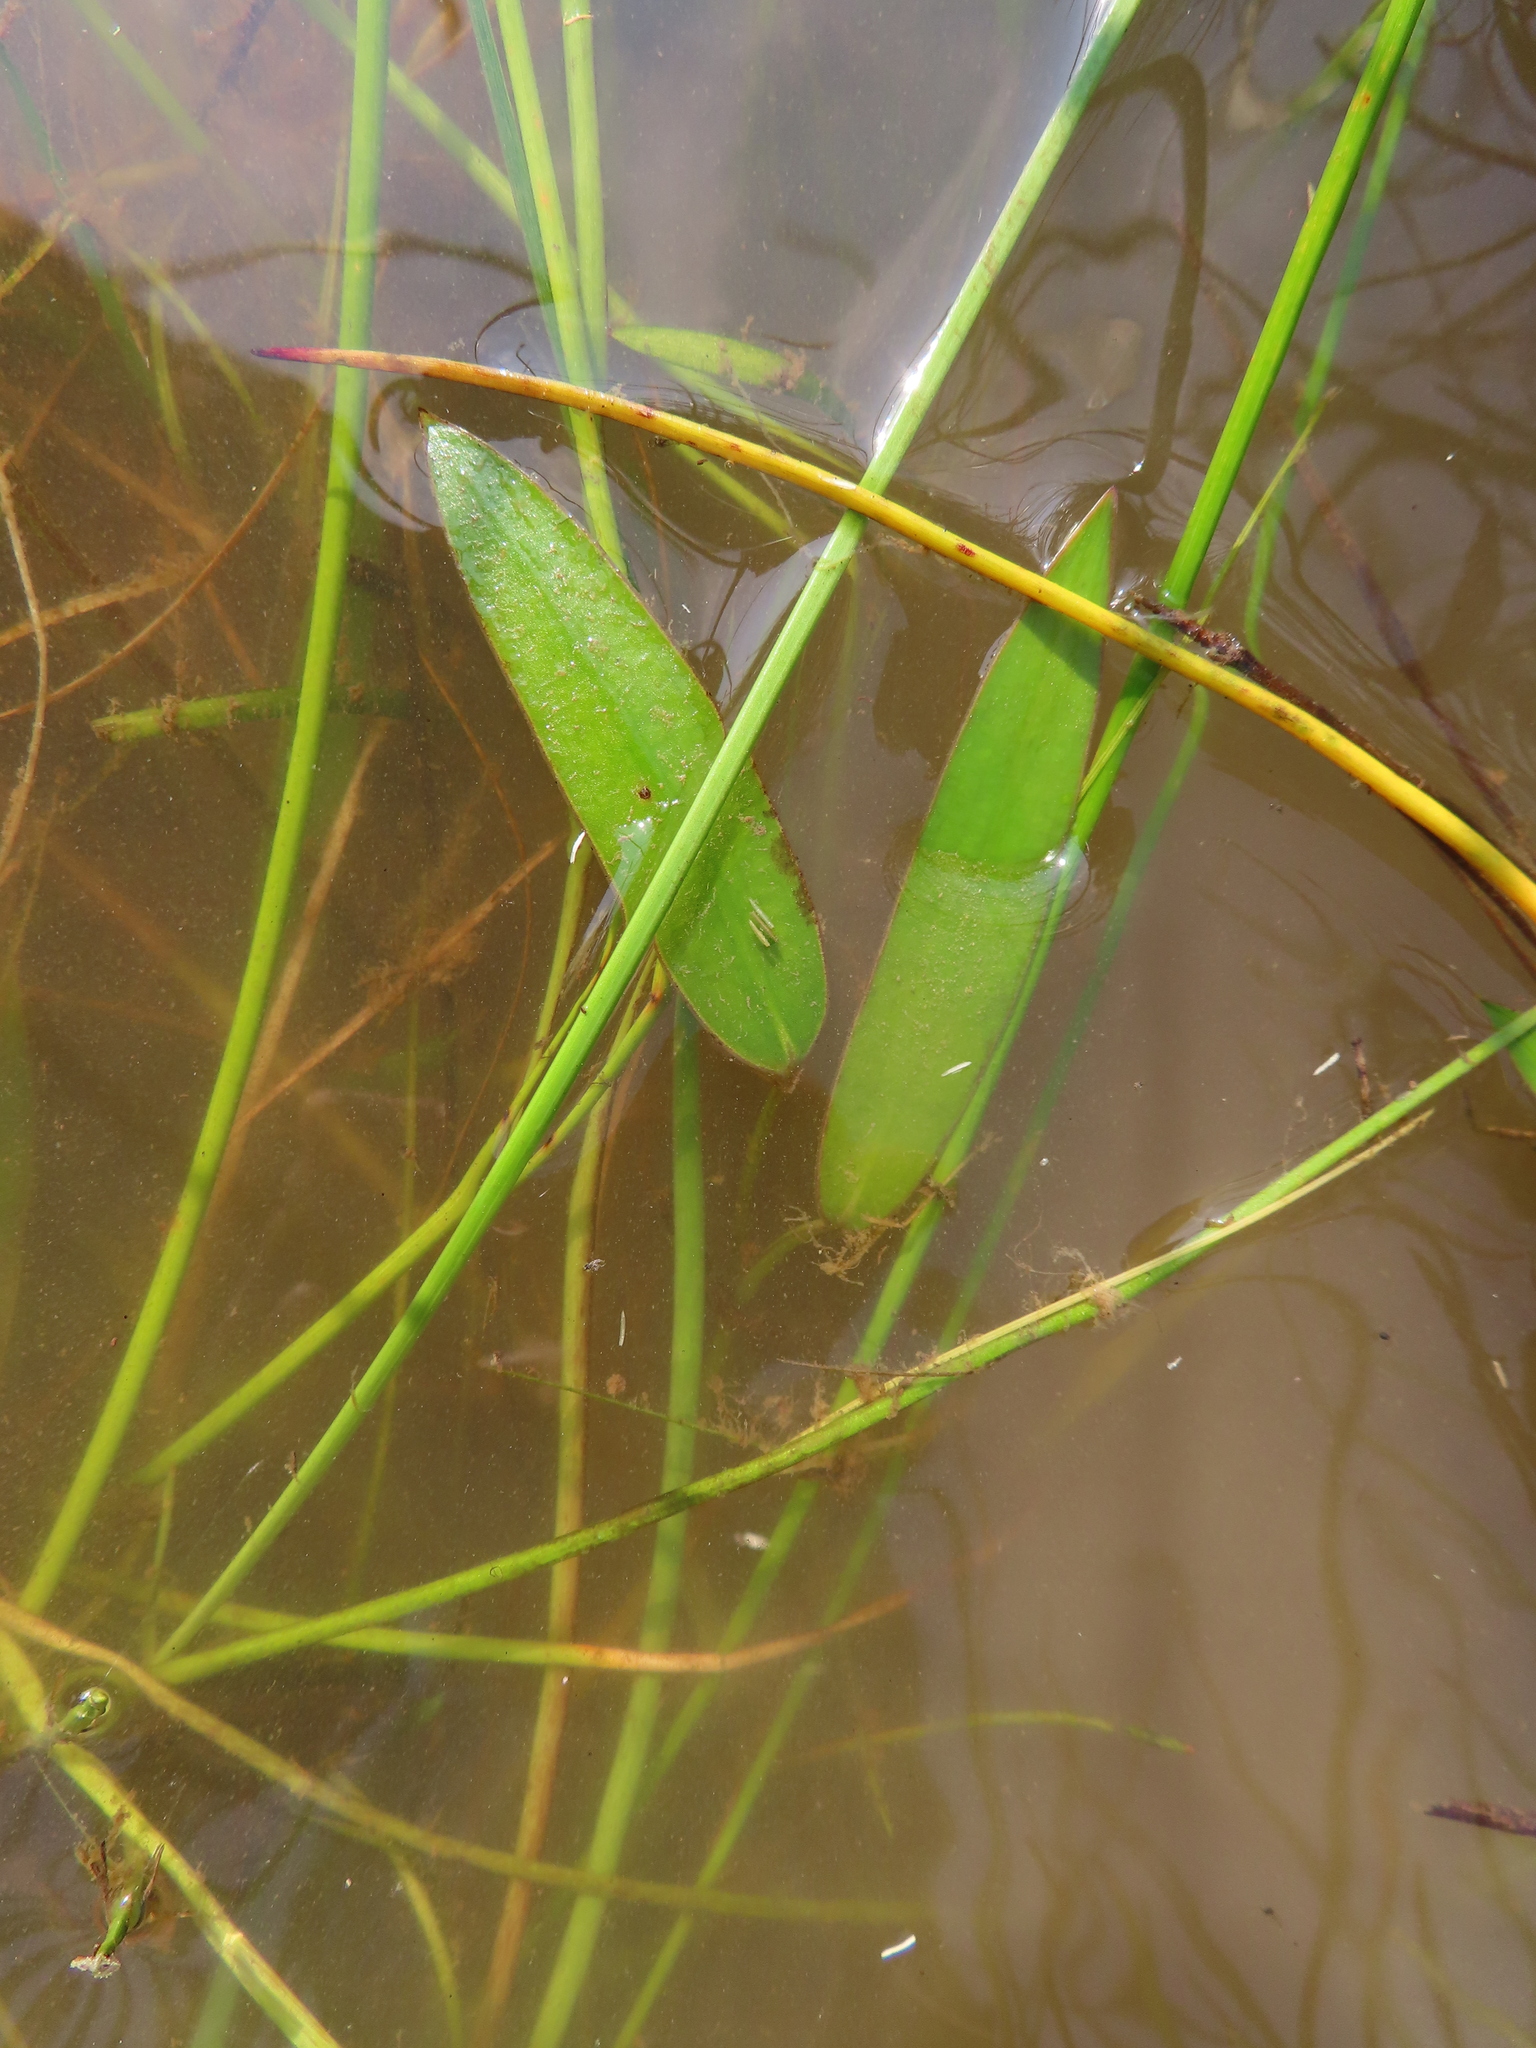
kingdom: Plantae
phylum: Tracheophyta
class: Liliopsida
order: Alismatales
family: Aponogetonaceae
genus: Aponogeton
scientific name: Aponogeton angustifolius
